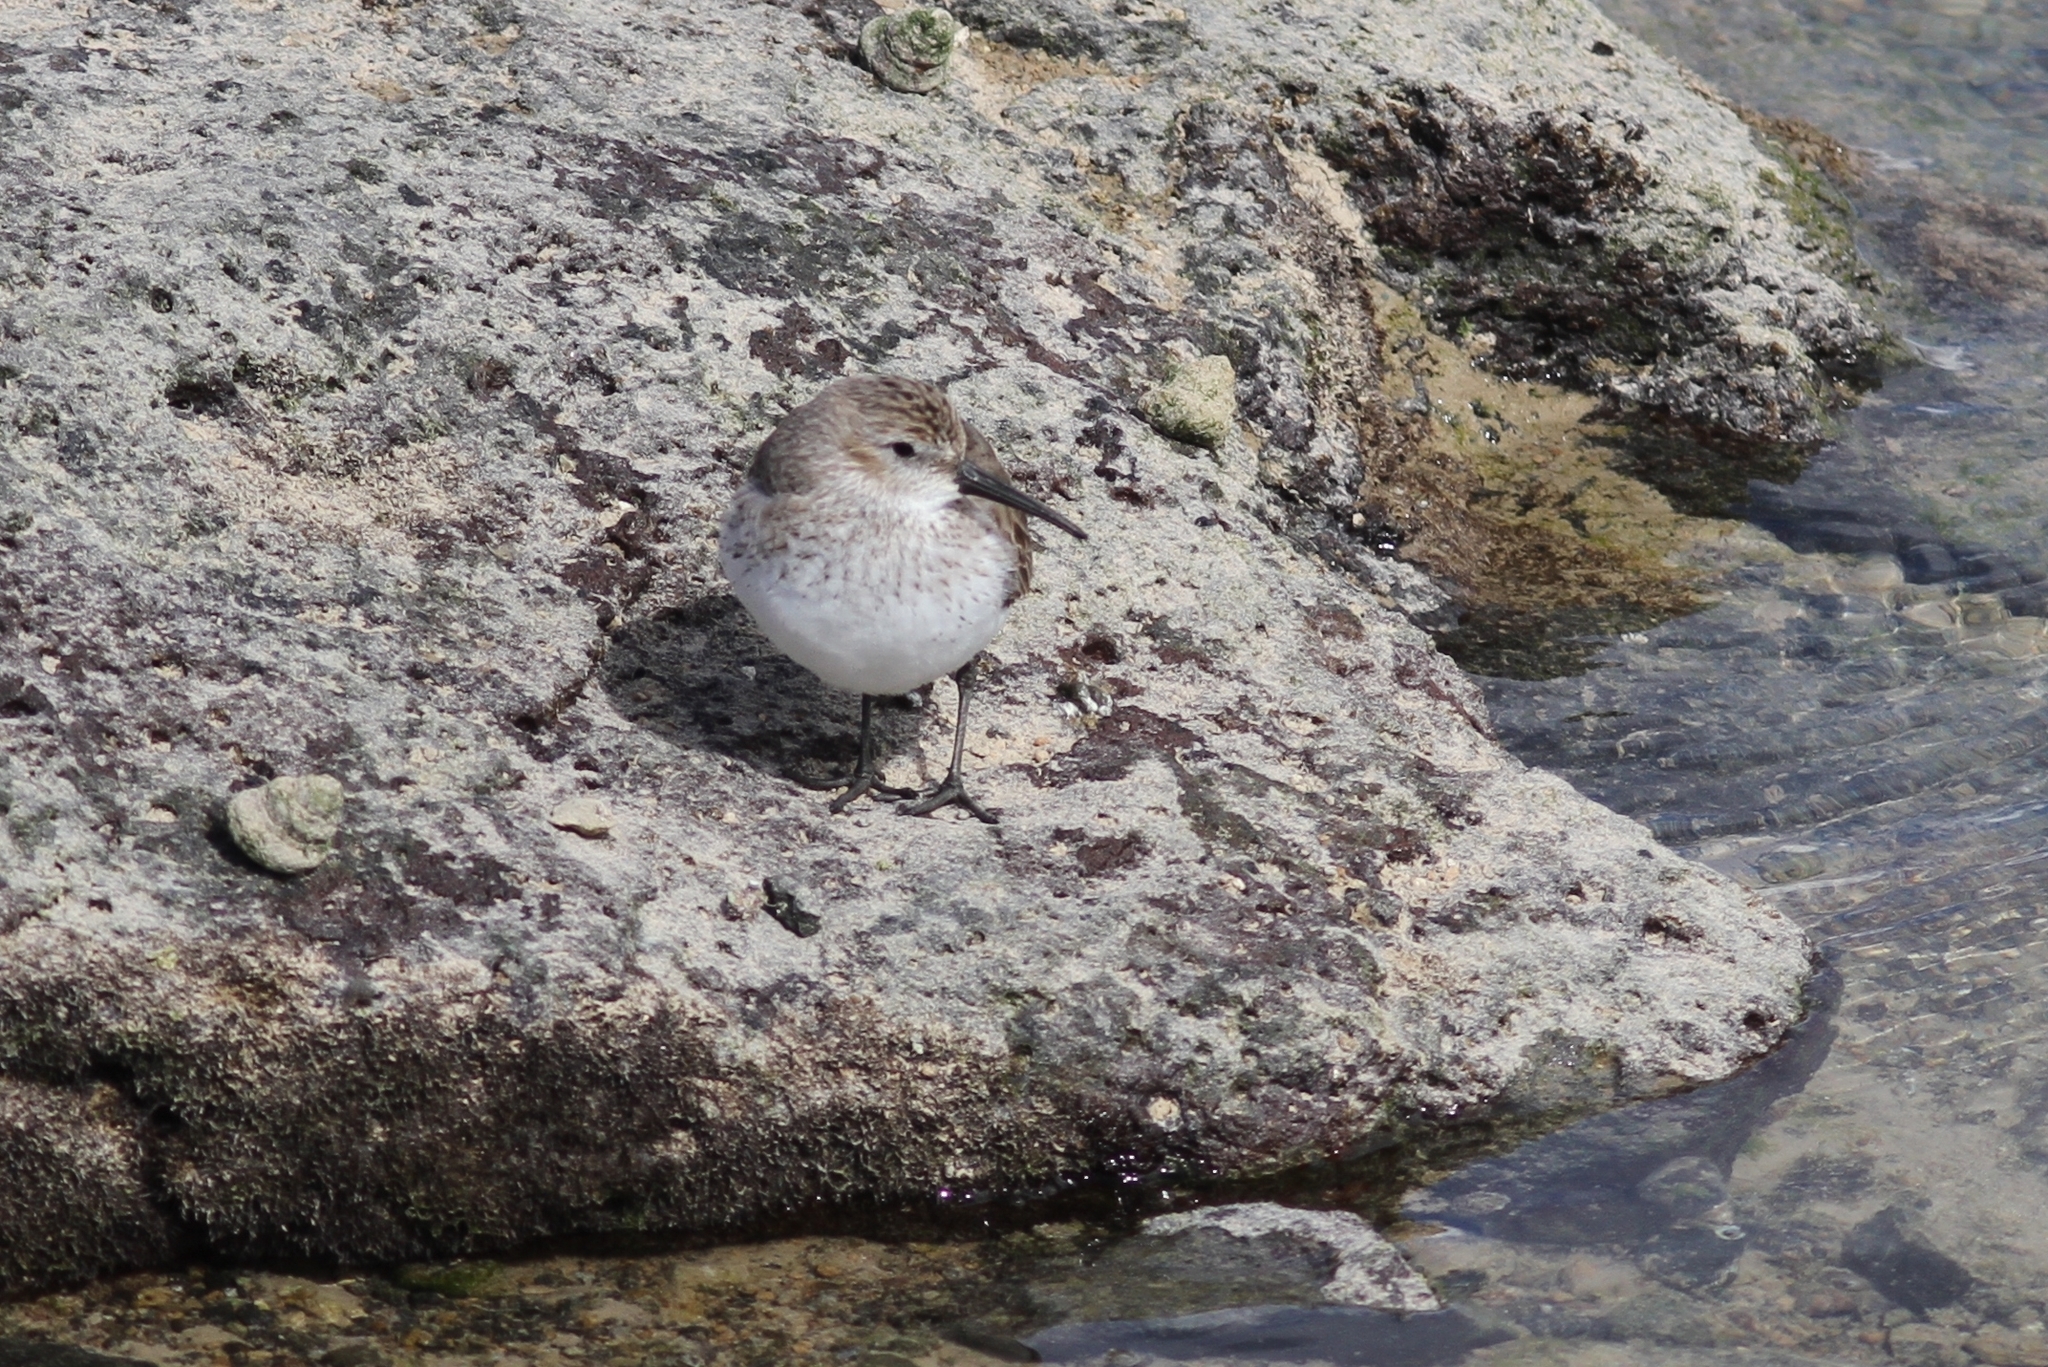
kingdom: Animalia
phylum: Chordata
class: Aves
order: Charadriiformes
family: Scolopacidae
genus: Calidris
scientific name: Calidris alpina
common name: Dunlin
